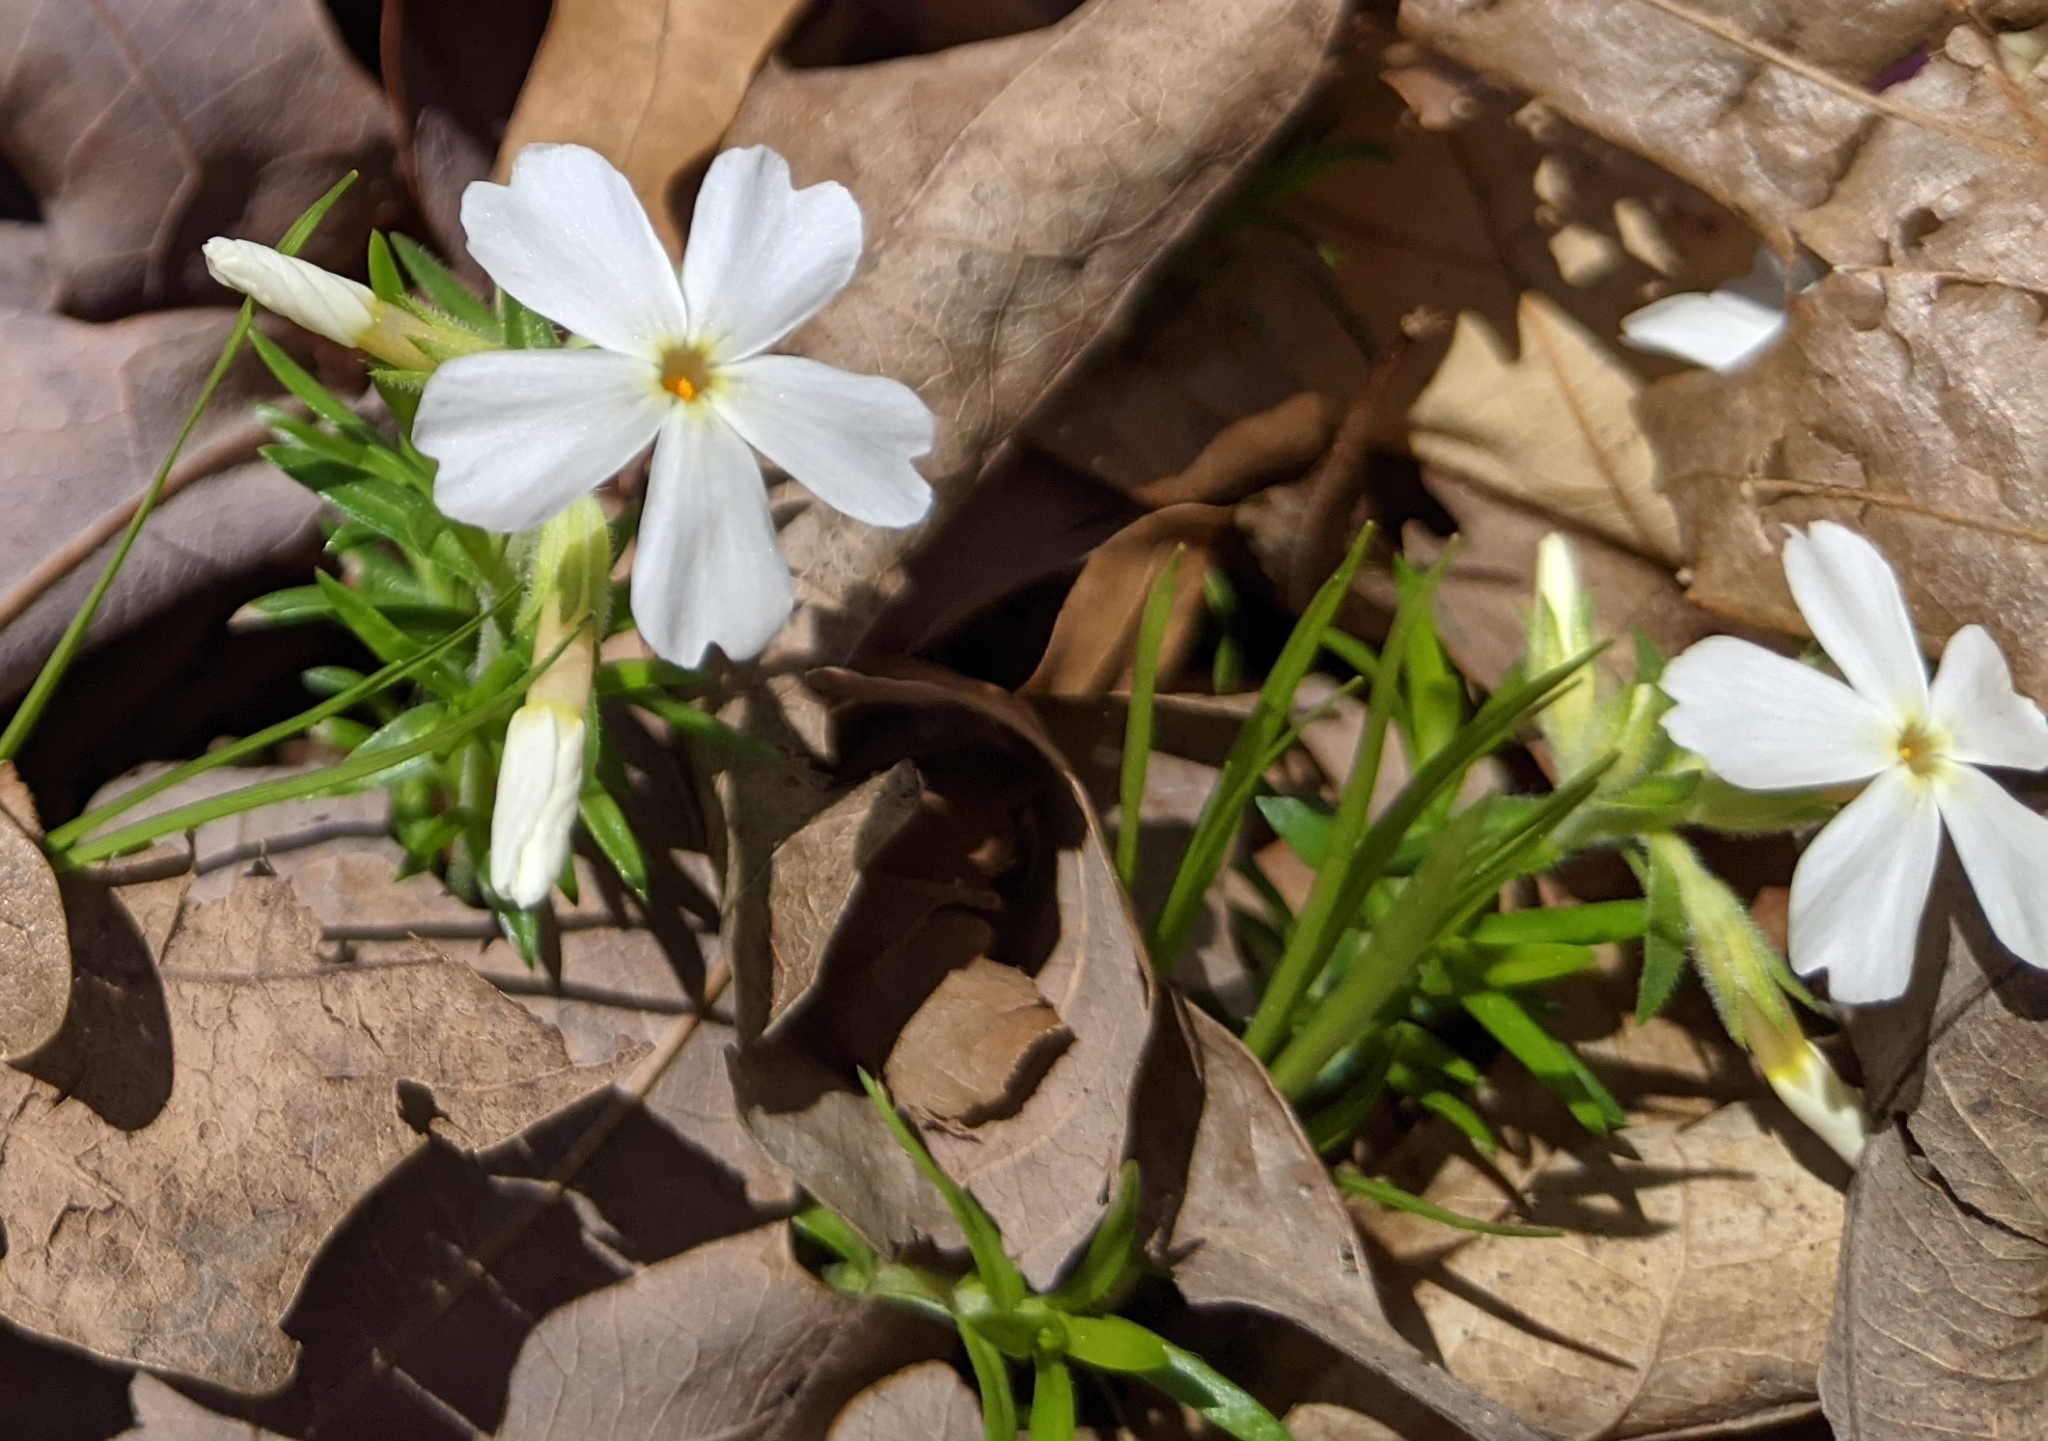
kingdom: Plantae
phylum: Tracheophyta
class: Magnoliopsida
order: Ericales
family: Polemoniaceae
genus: Phlox
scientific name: Phlox subulata
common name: Moss phlox
